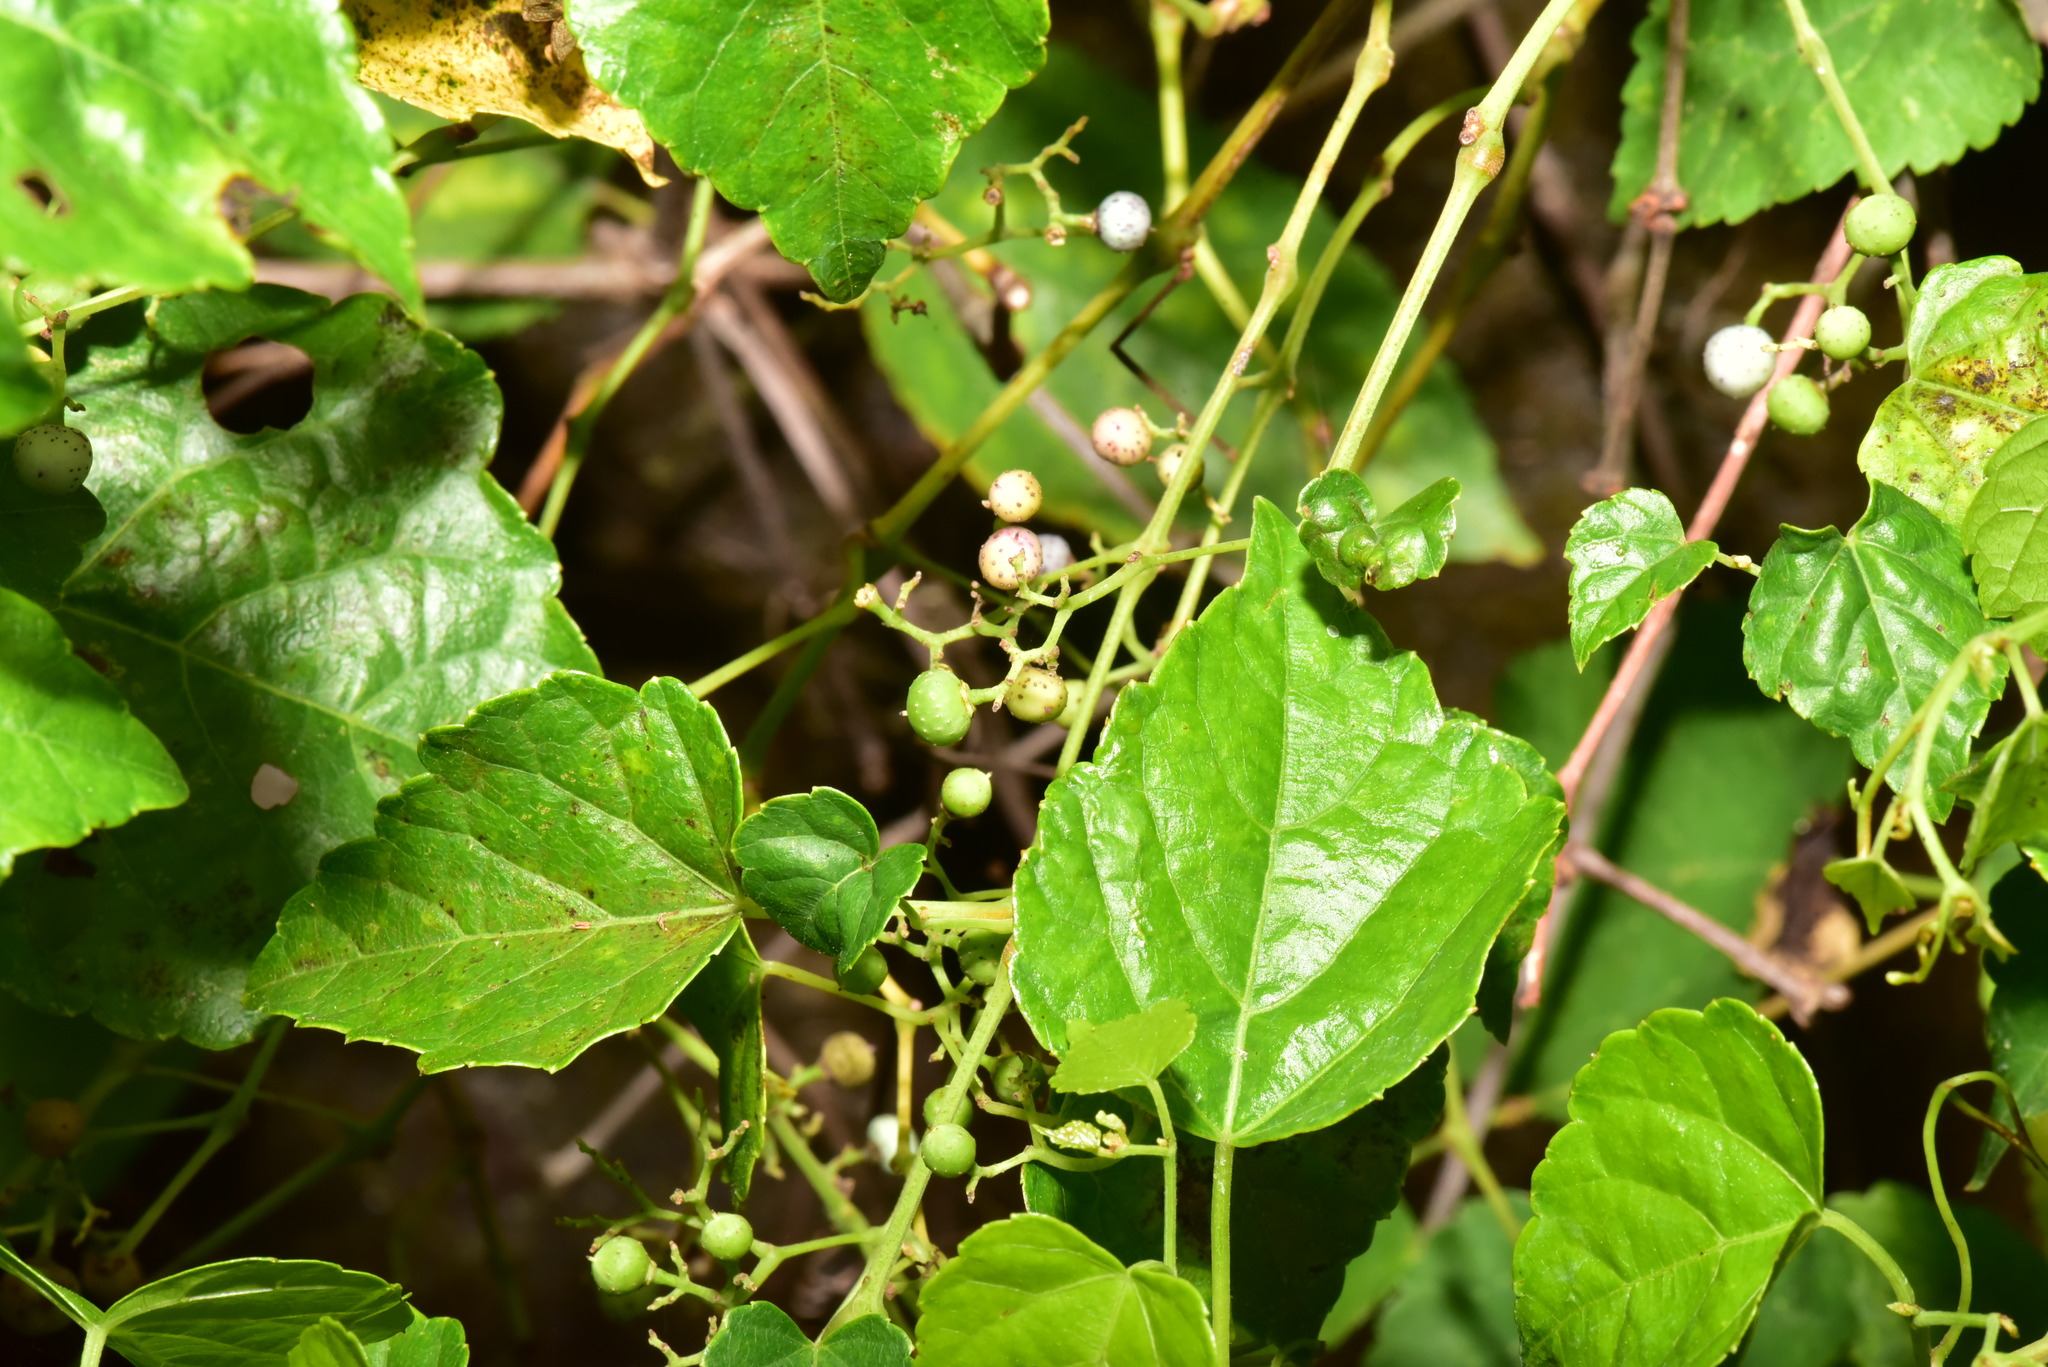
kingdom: Plantae
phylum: Tracheophyta
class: Magnoliopsida
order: Vitales
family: Vitaceae
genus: Ampelopsis
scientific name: Ampelopsis glandulosa
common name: Amur peppervine
